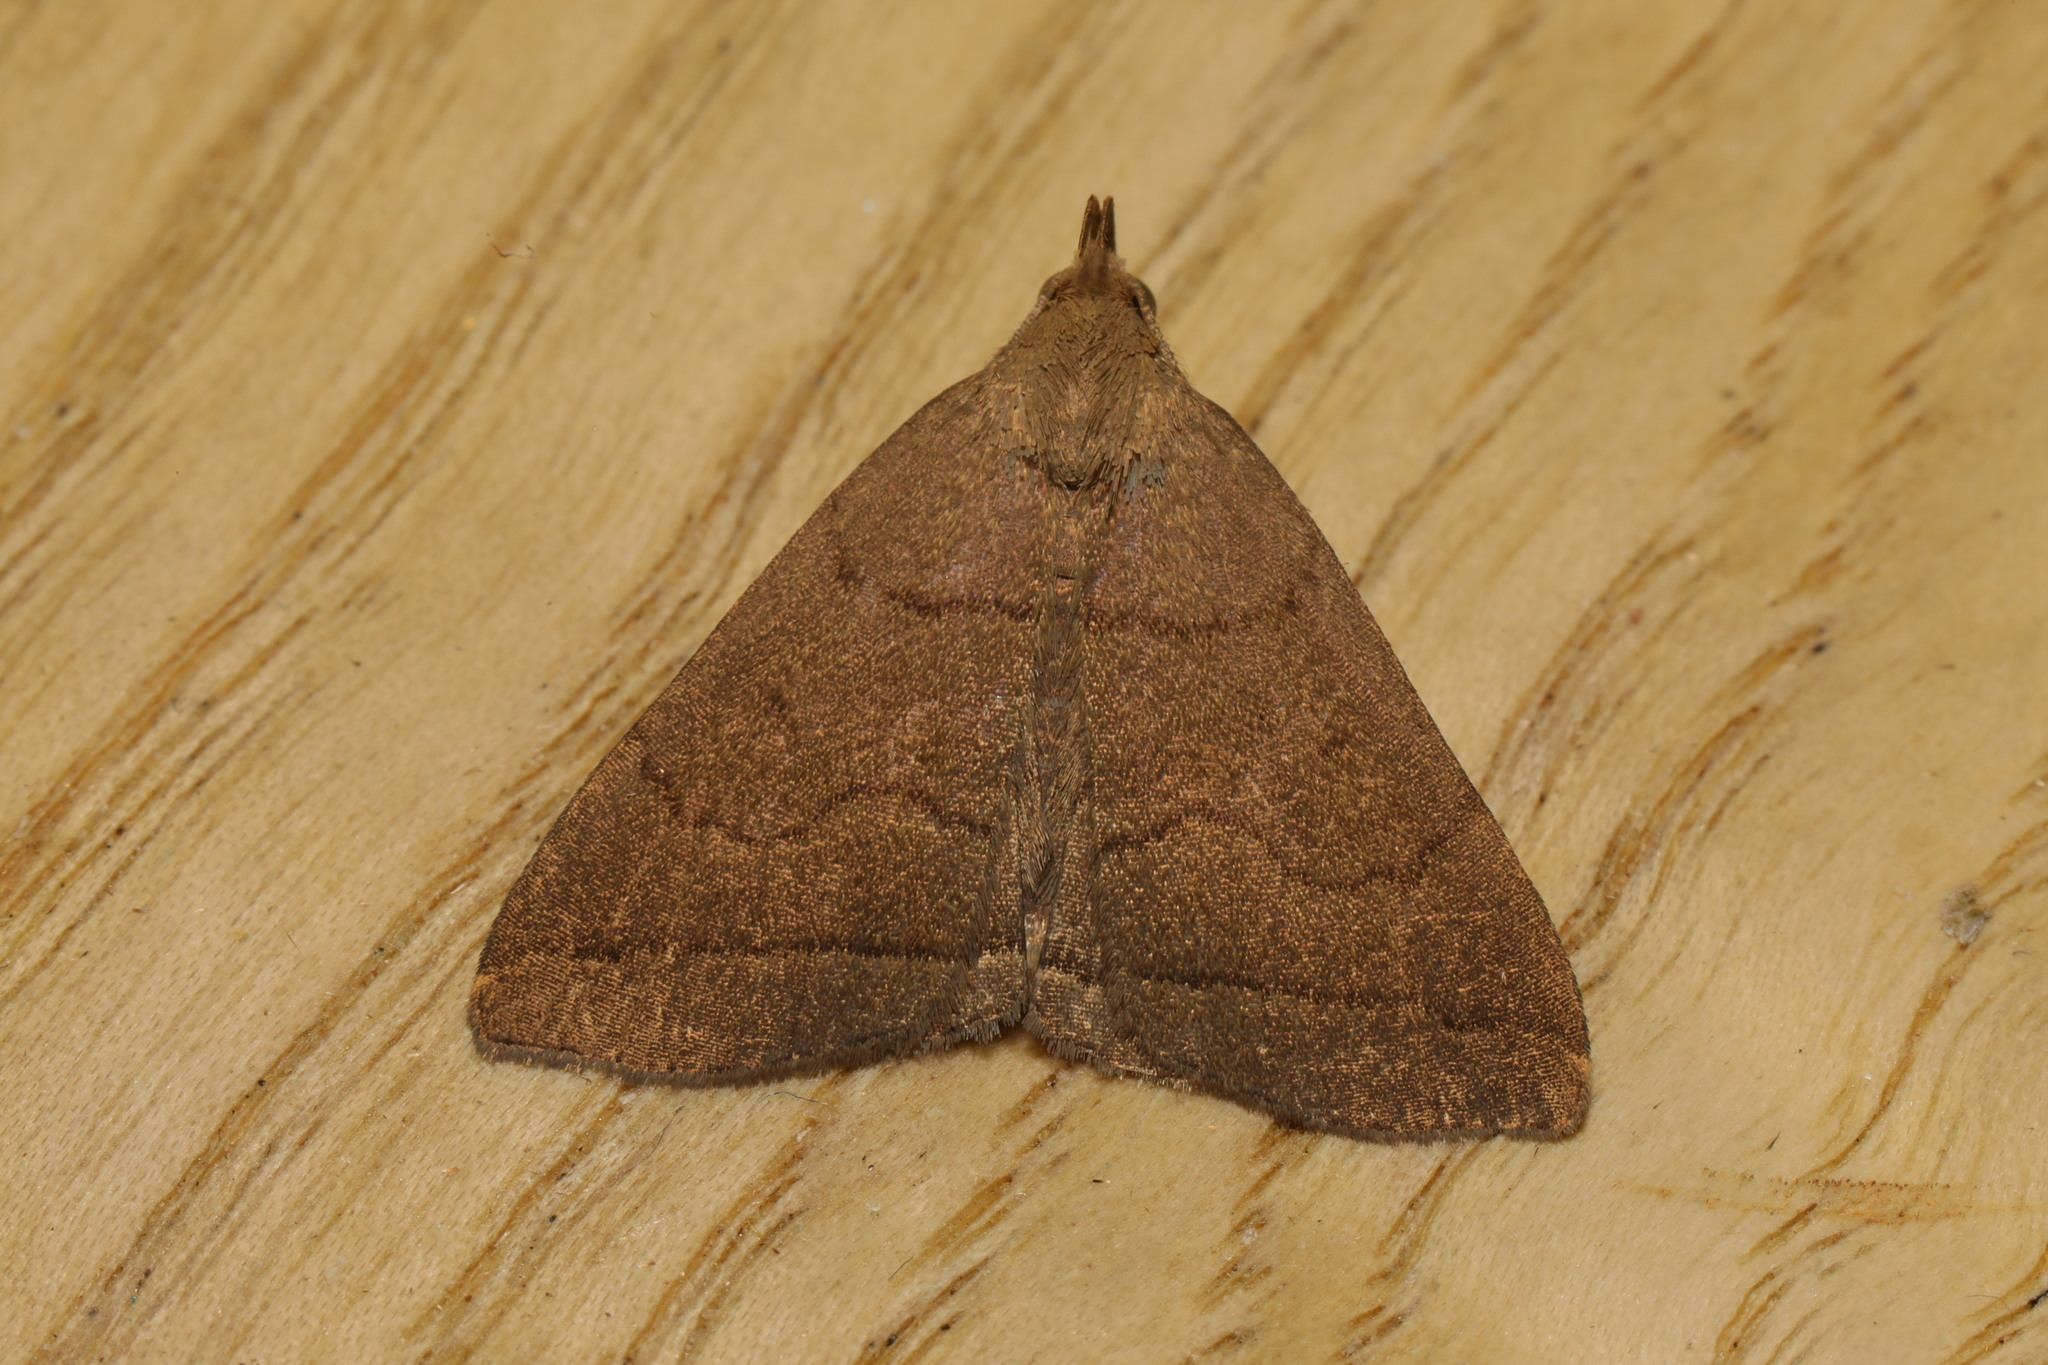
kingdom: Animalia
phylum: Arthropoda
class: Insecta
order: Lepidoptera
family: Erebidae
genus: Herminia
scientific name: Herminia tarsipennalis
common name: Fan-foot
